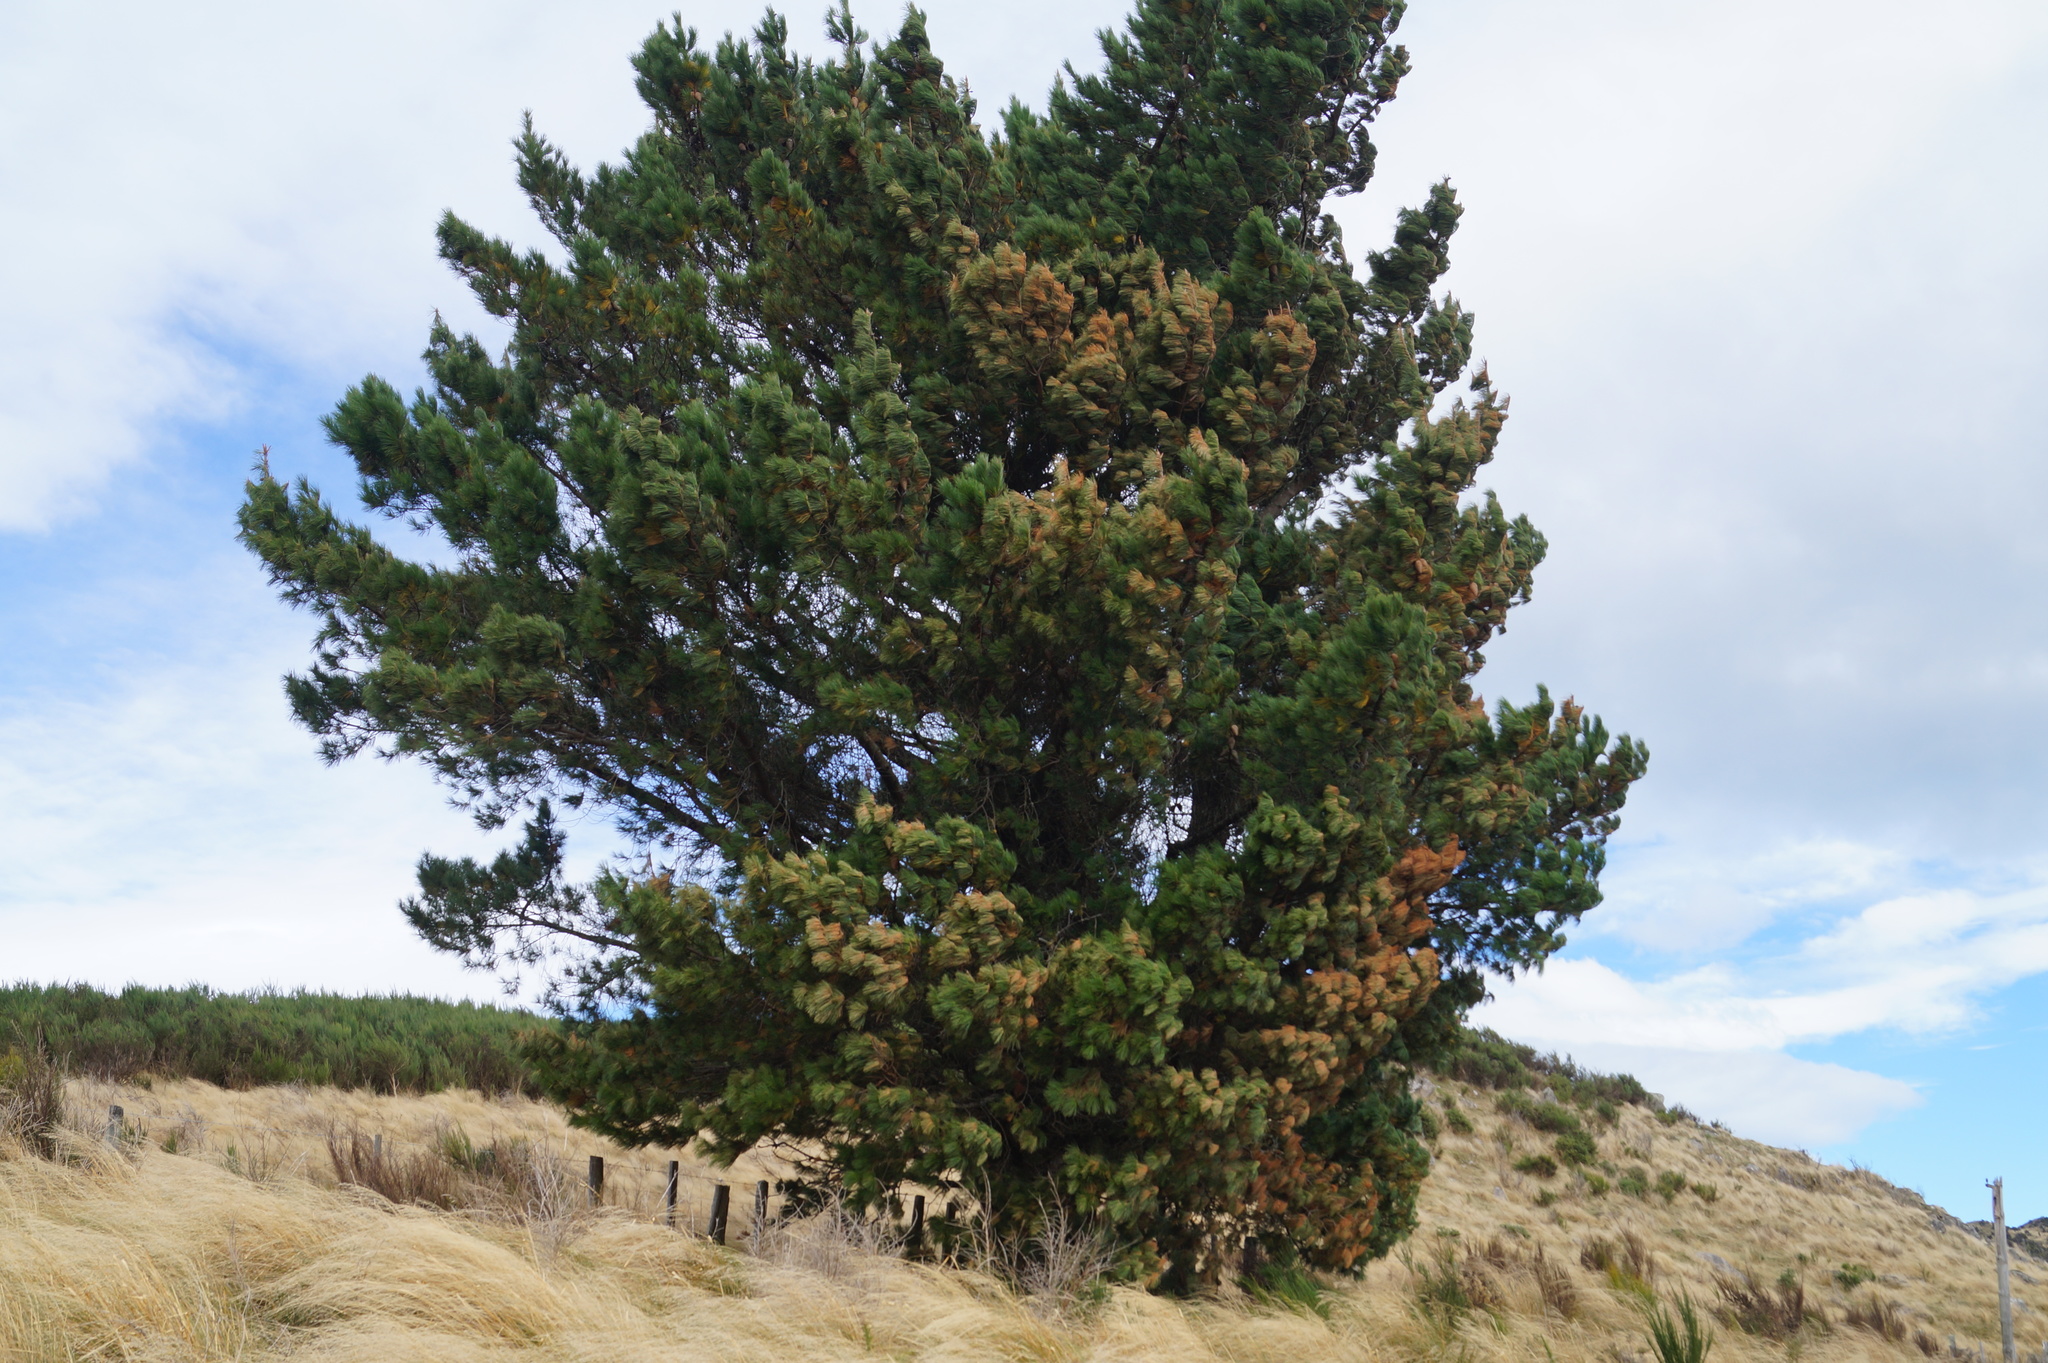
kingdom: Plantae
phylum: Tracheophyta
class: Pinopsida
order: Pinales
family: Pinaceae
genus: Pinus
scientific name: Pinus radiata
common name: Monterey pine
